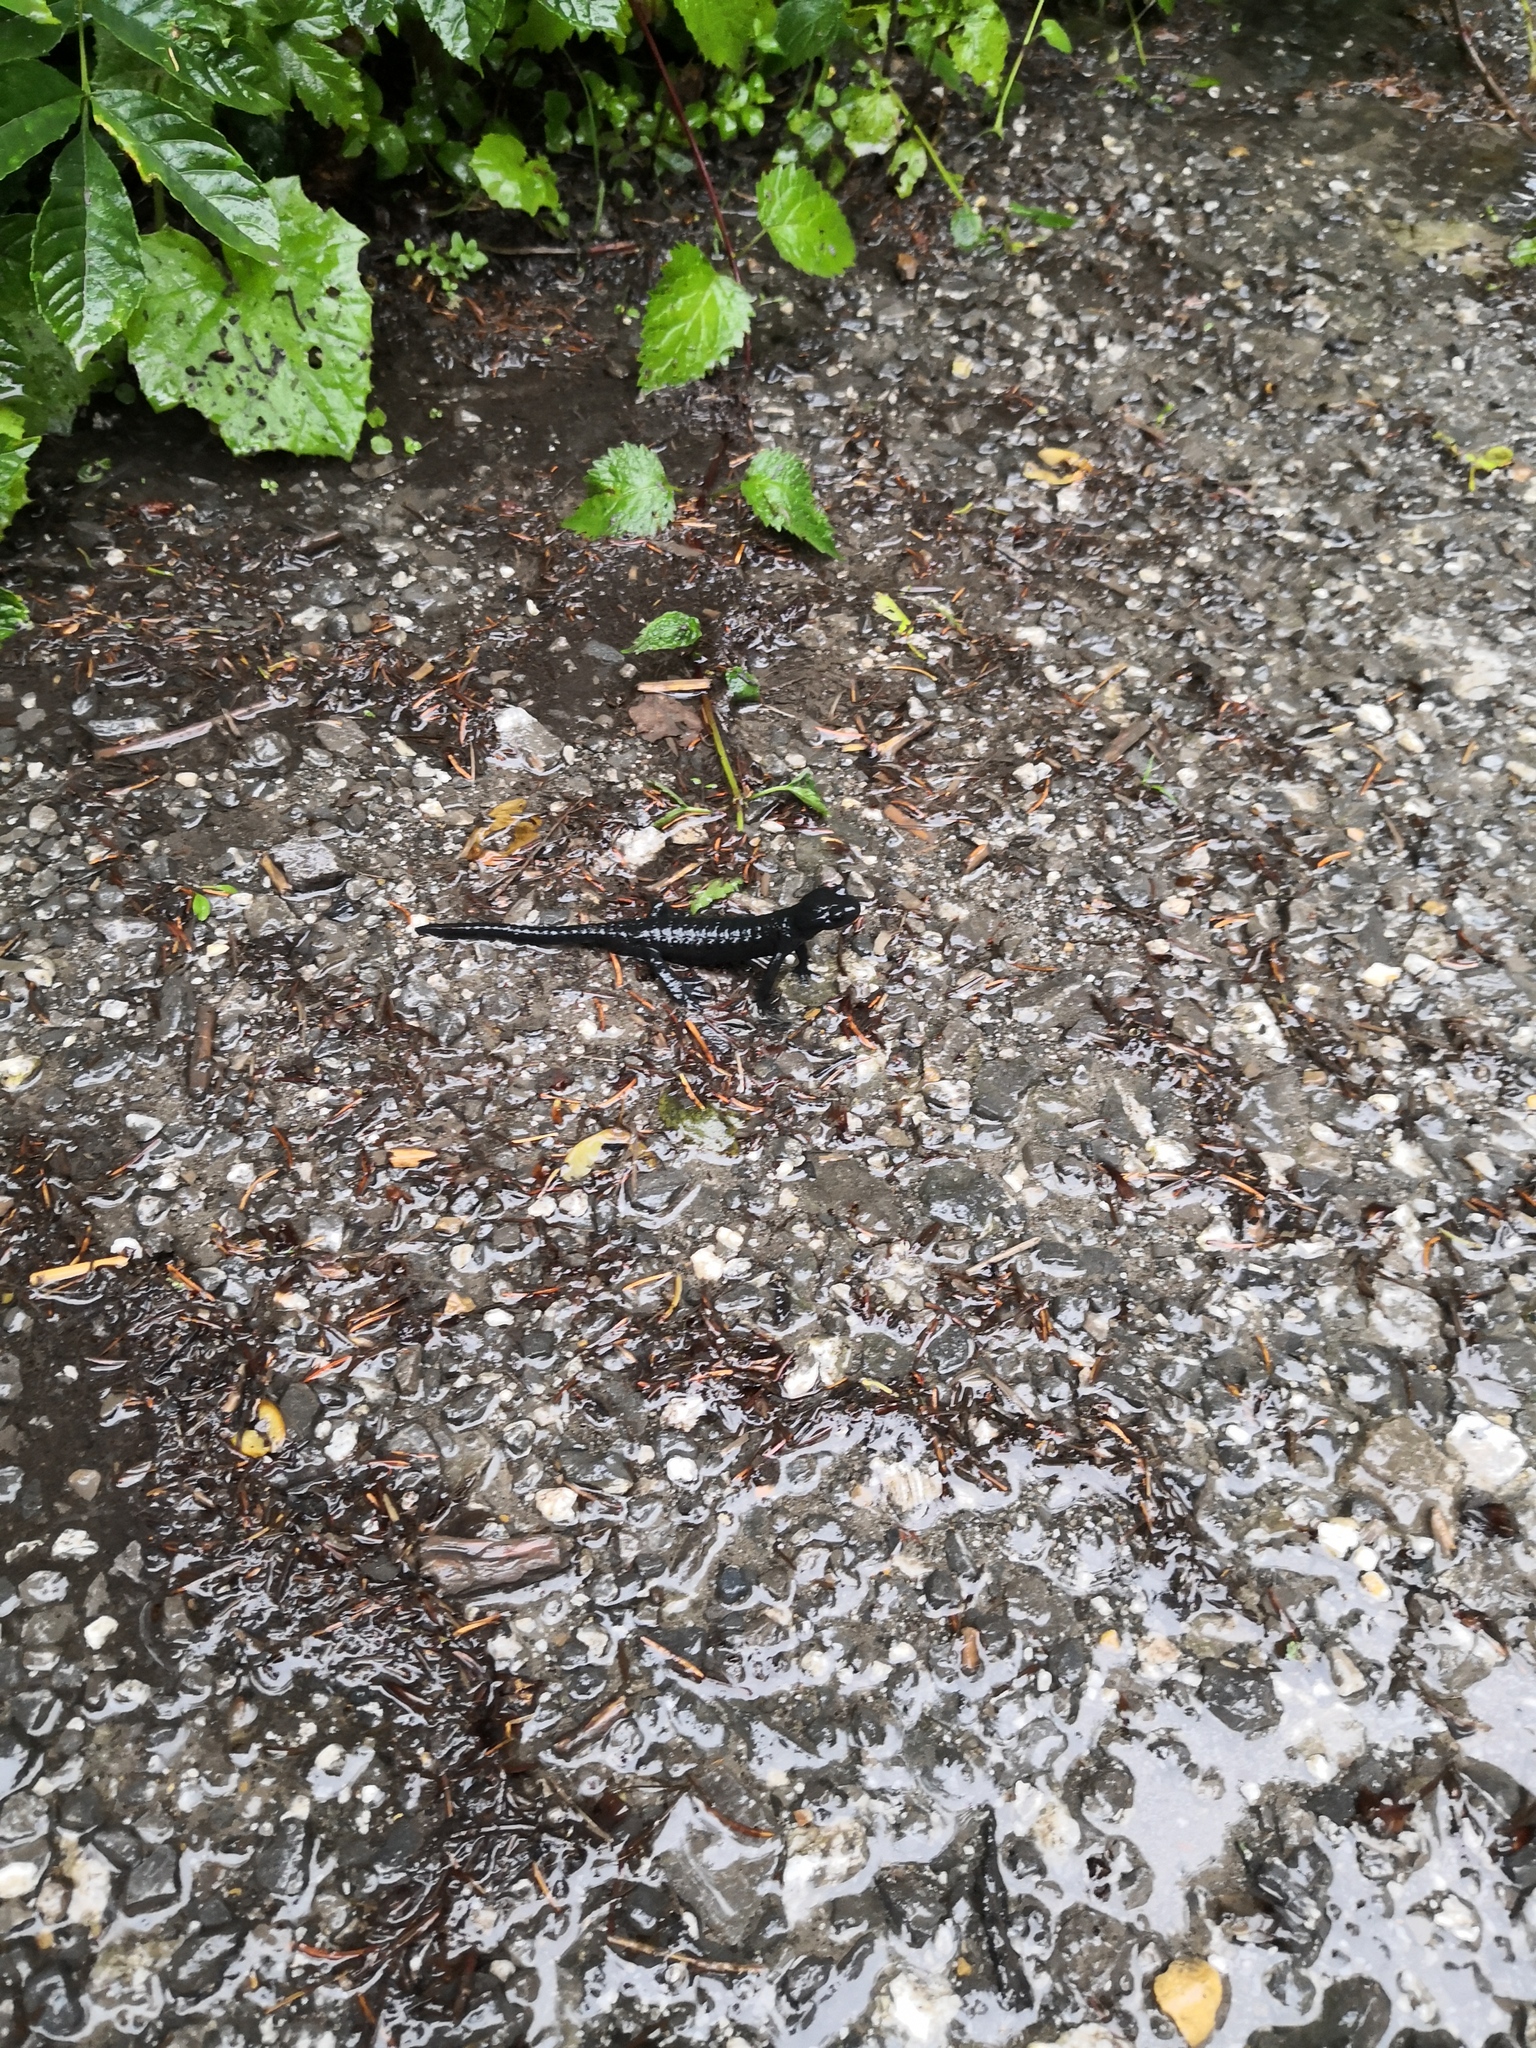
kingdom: Animalia
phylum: Chordata
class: Amphibia
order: Caudata
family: Salamandridae
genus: Salamandra
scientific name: Salamandra atra
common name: Alpine salamander
